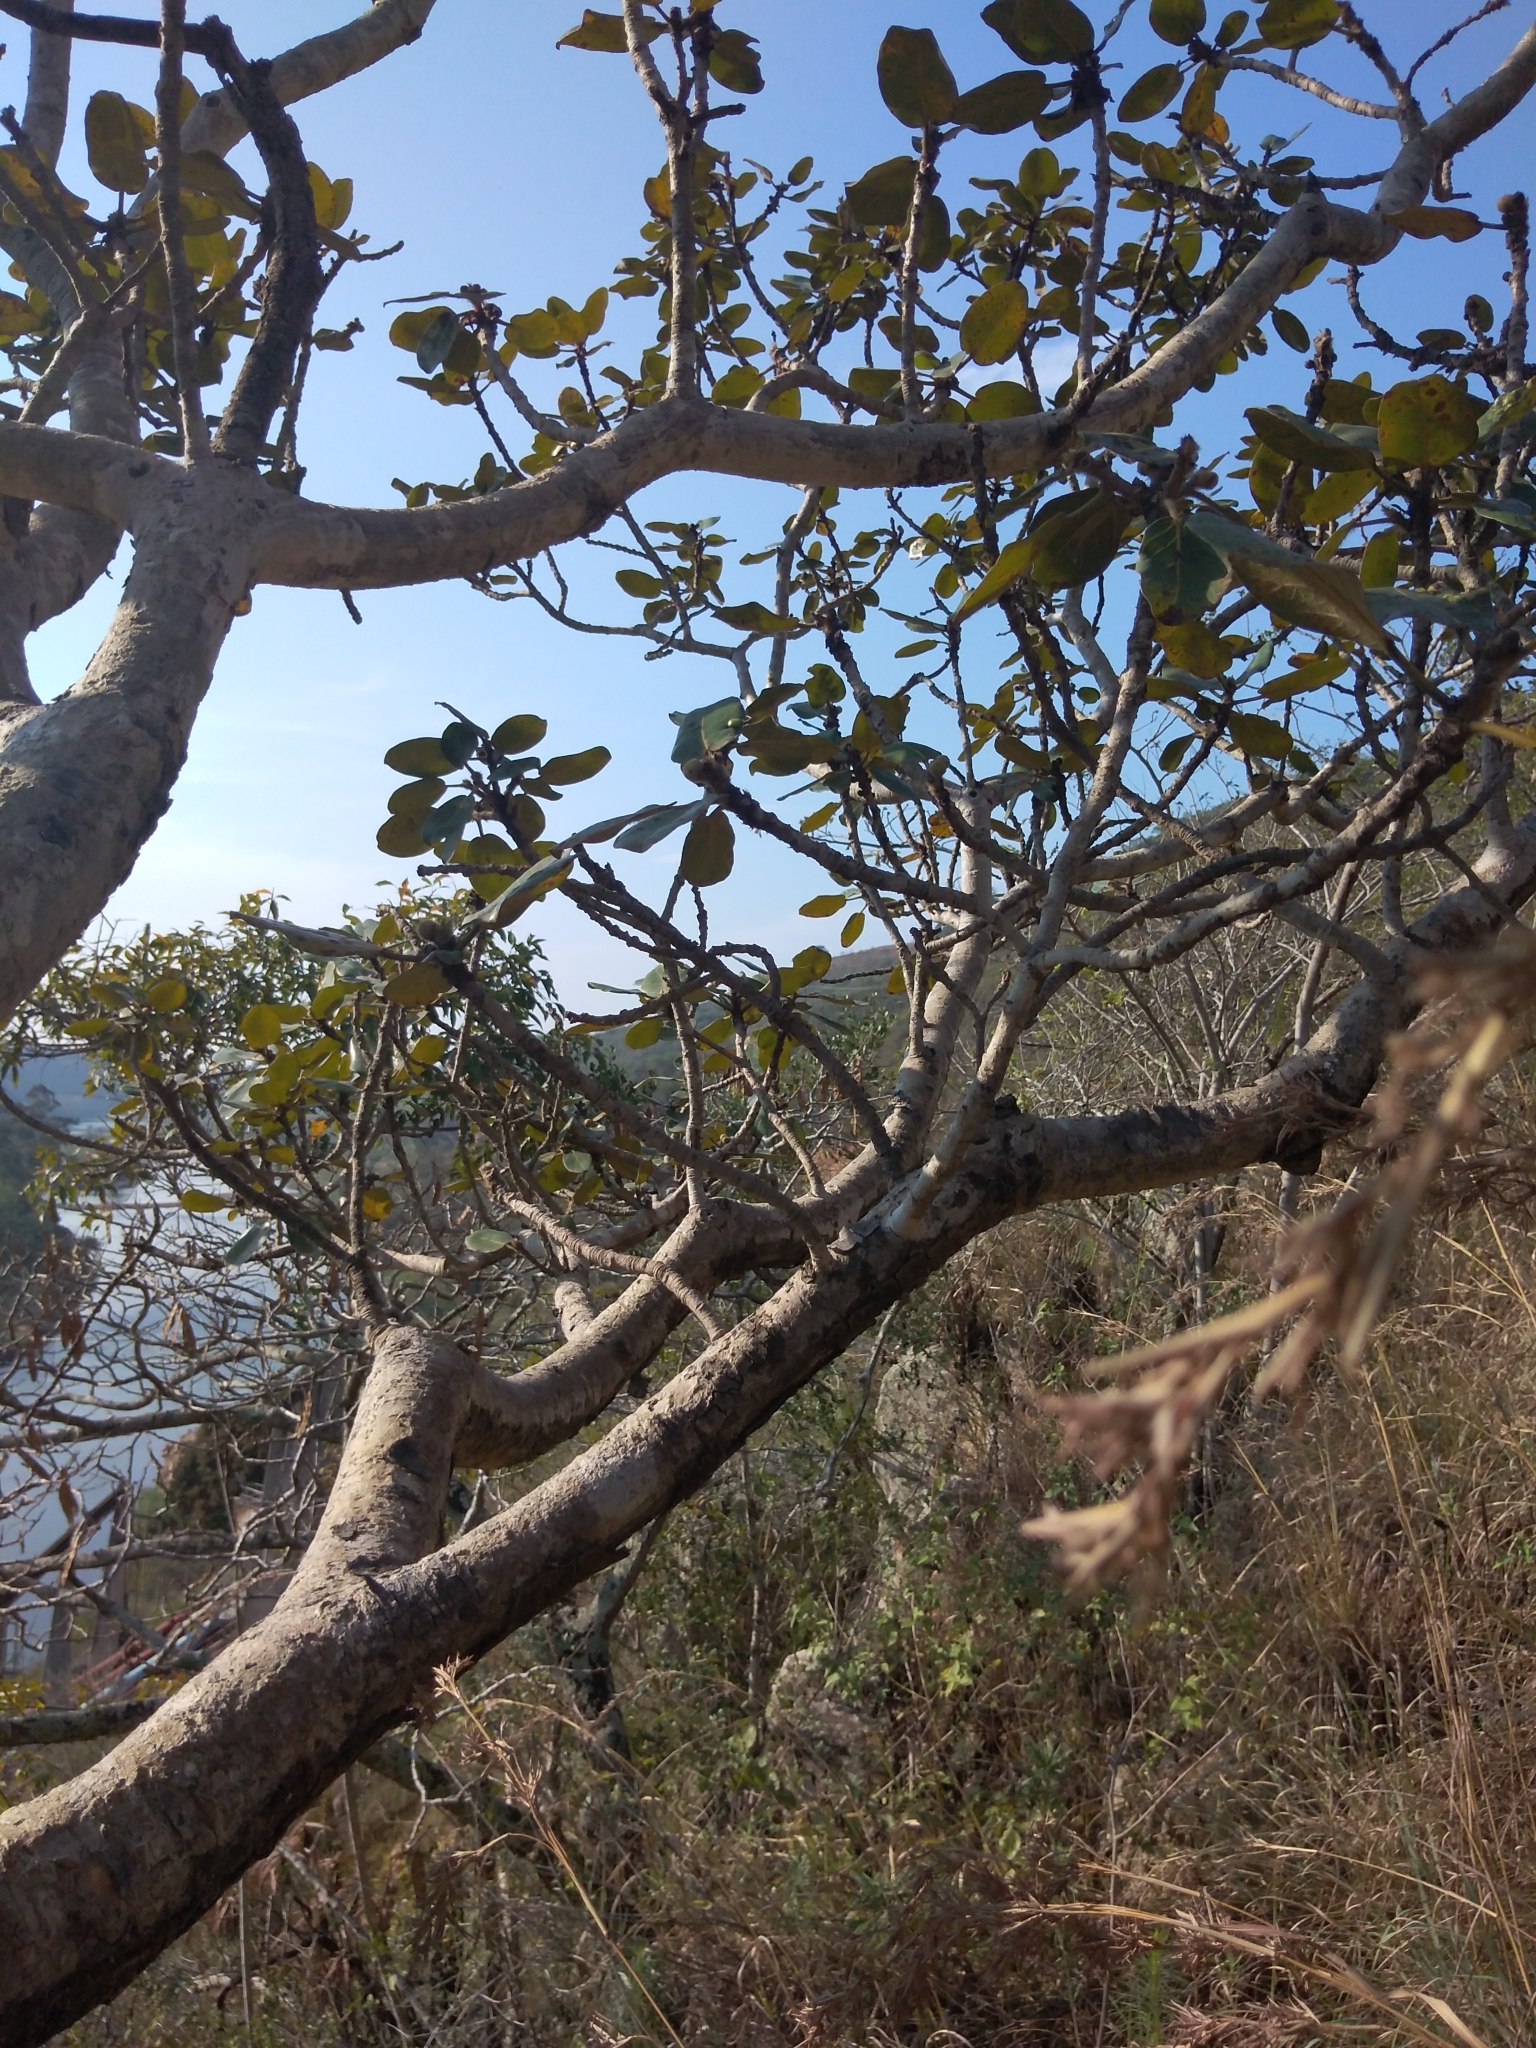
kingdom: Plantae
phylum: Tracheophyta
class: Magnoliopsida
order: Rosales
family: Moraceae
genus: Ficus
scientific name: Ficus glumosa
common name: Hairy rock fig
